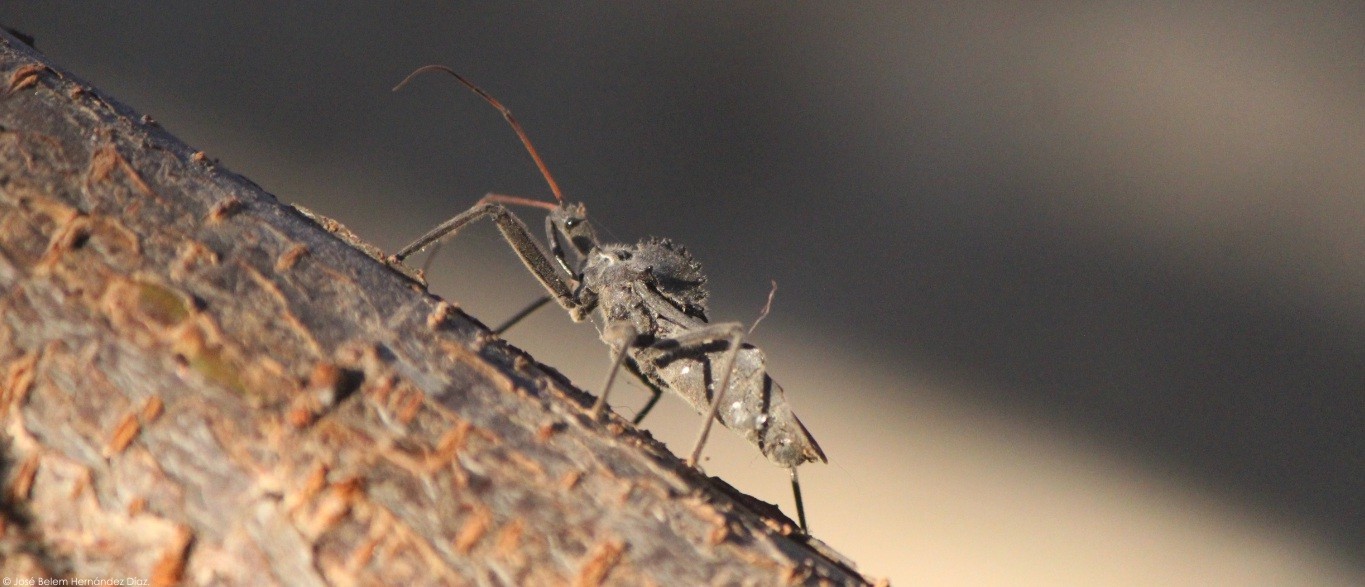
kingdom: Animalia
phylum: Arthropoda
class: Insecta
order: Hemiptera
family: Reduviidae
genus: Arilus
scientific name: Arilus cristatus
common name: North american wheel bug
